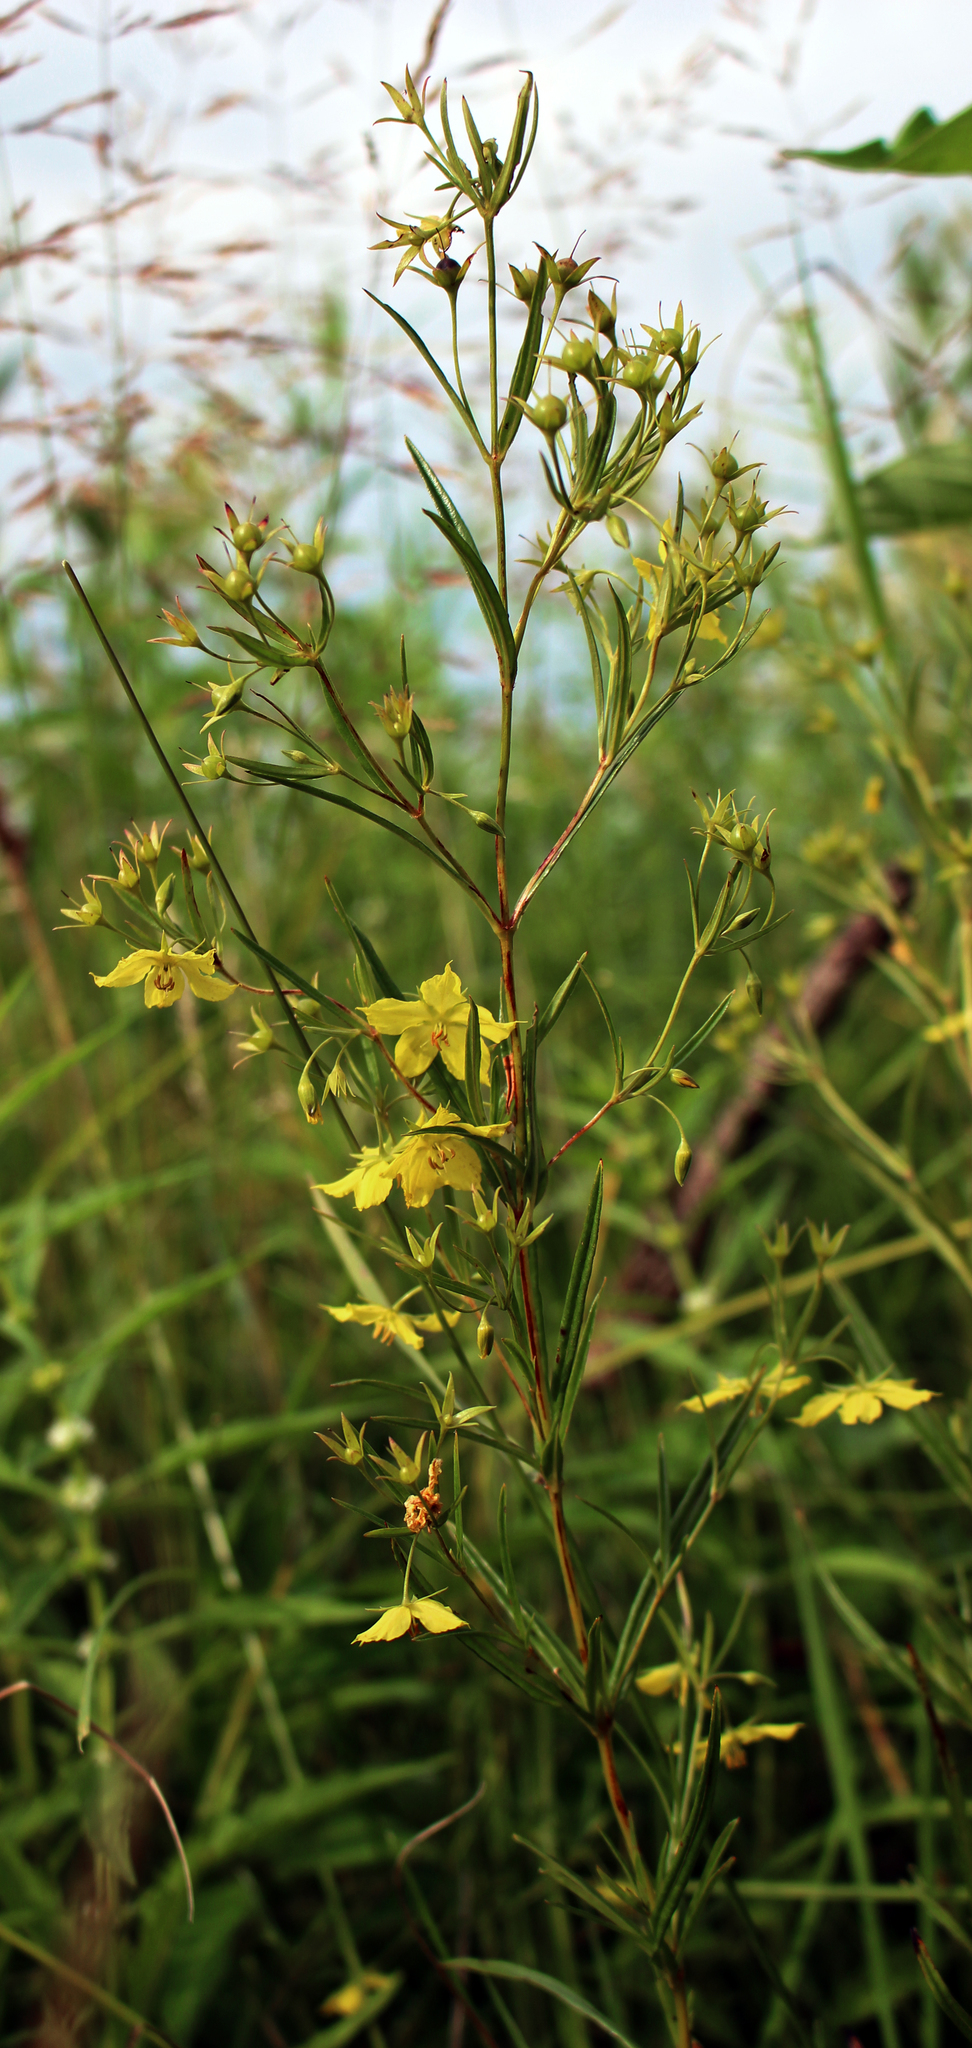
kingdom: Plantae
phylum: Tracheophyta
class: Magnoliopsida
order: Ericales
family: Primulaceae
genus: Lysimachia
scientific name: Lysimachia quadriflora
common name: Four-flowered loosestrife
